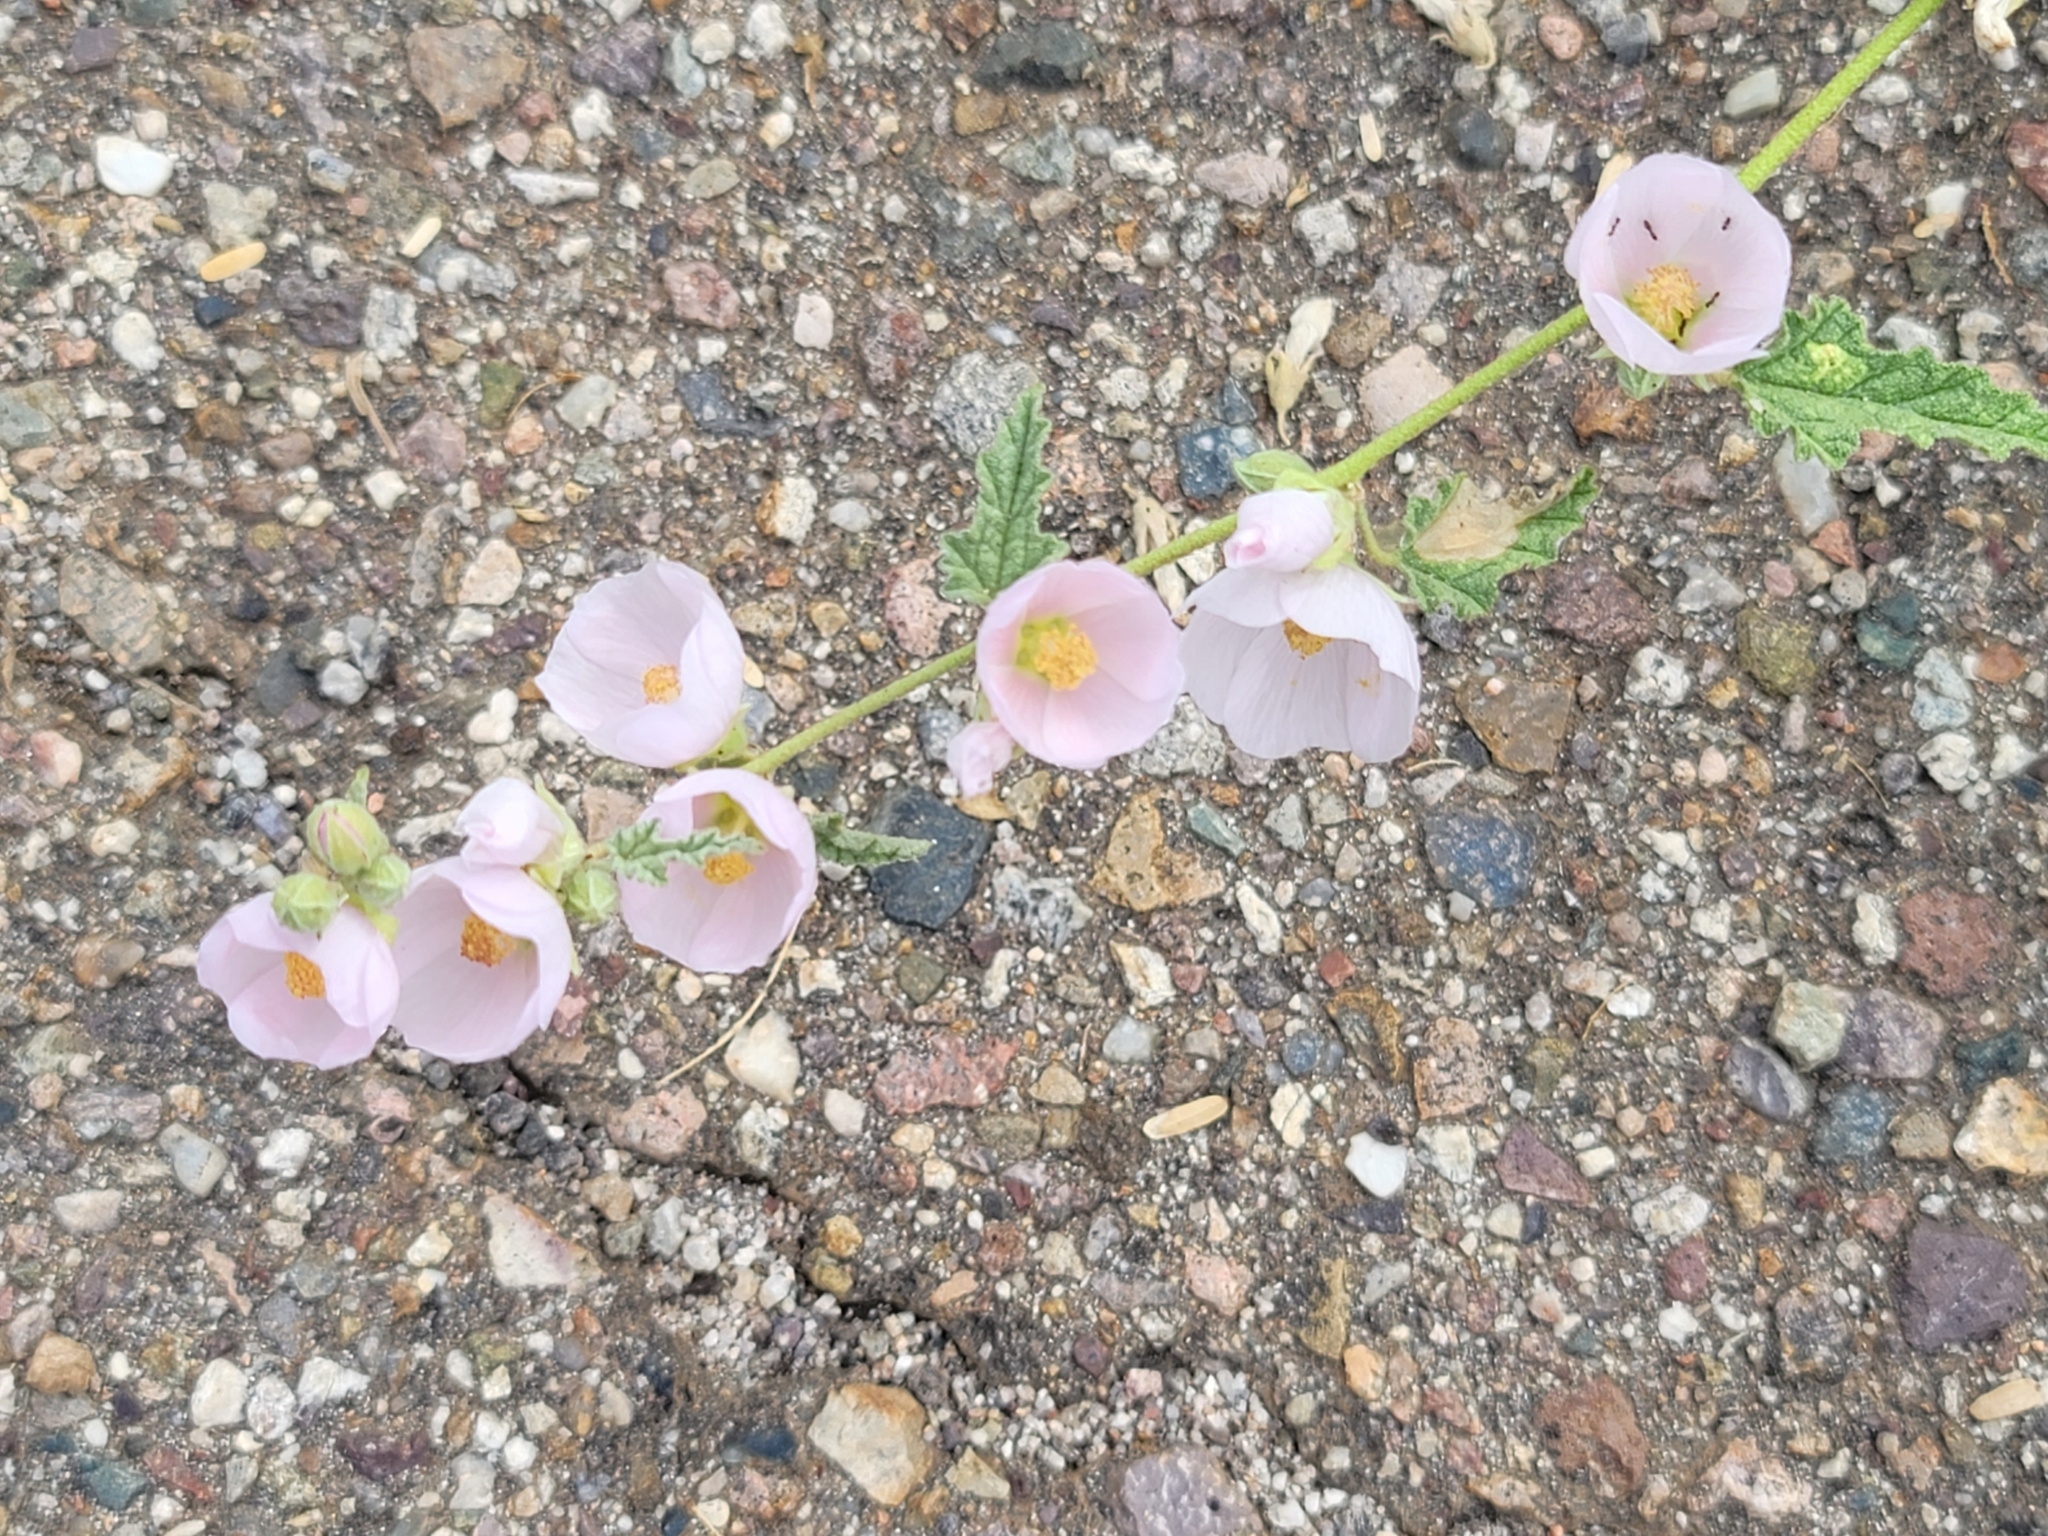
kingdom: Plantae
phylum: Tracheophyta
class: Magnoliopsida
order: Malvales
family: Malvaceae
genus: Sphaeralcea
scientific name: Sphaeralcea ambigua
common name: Apricot globe-mallow
